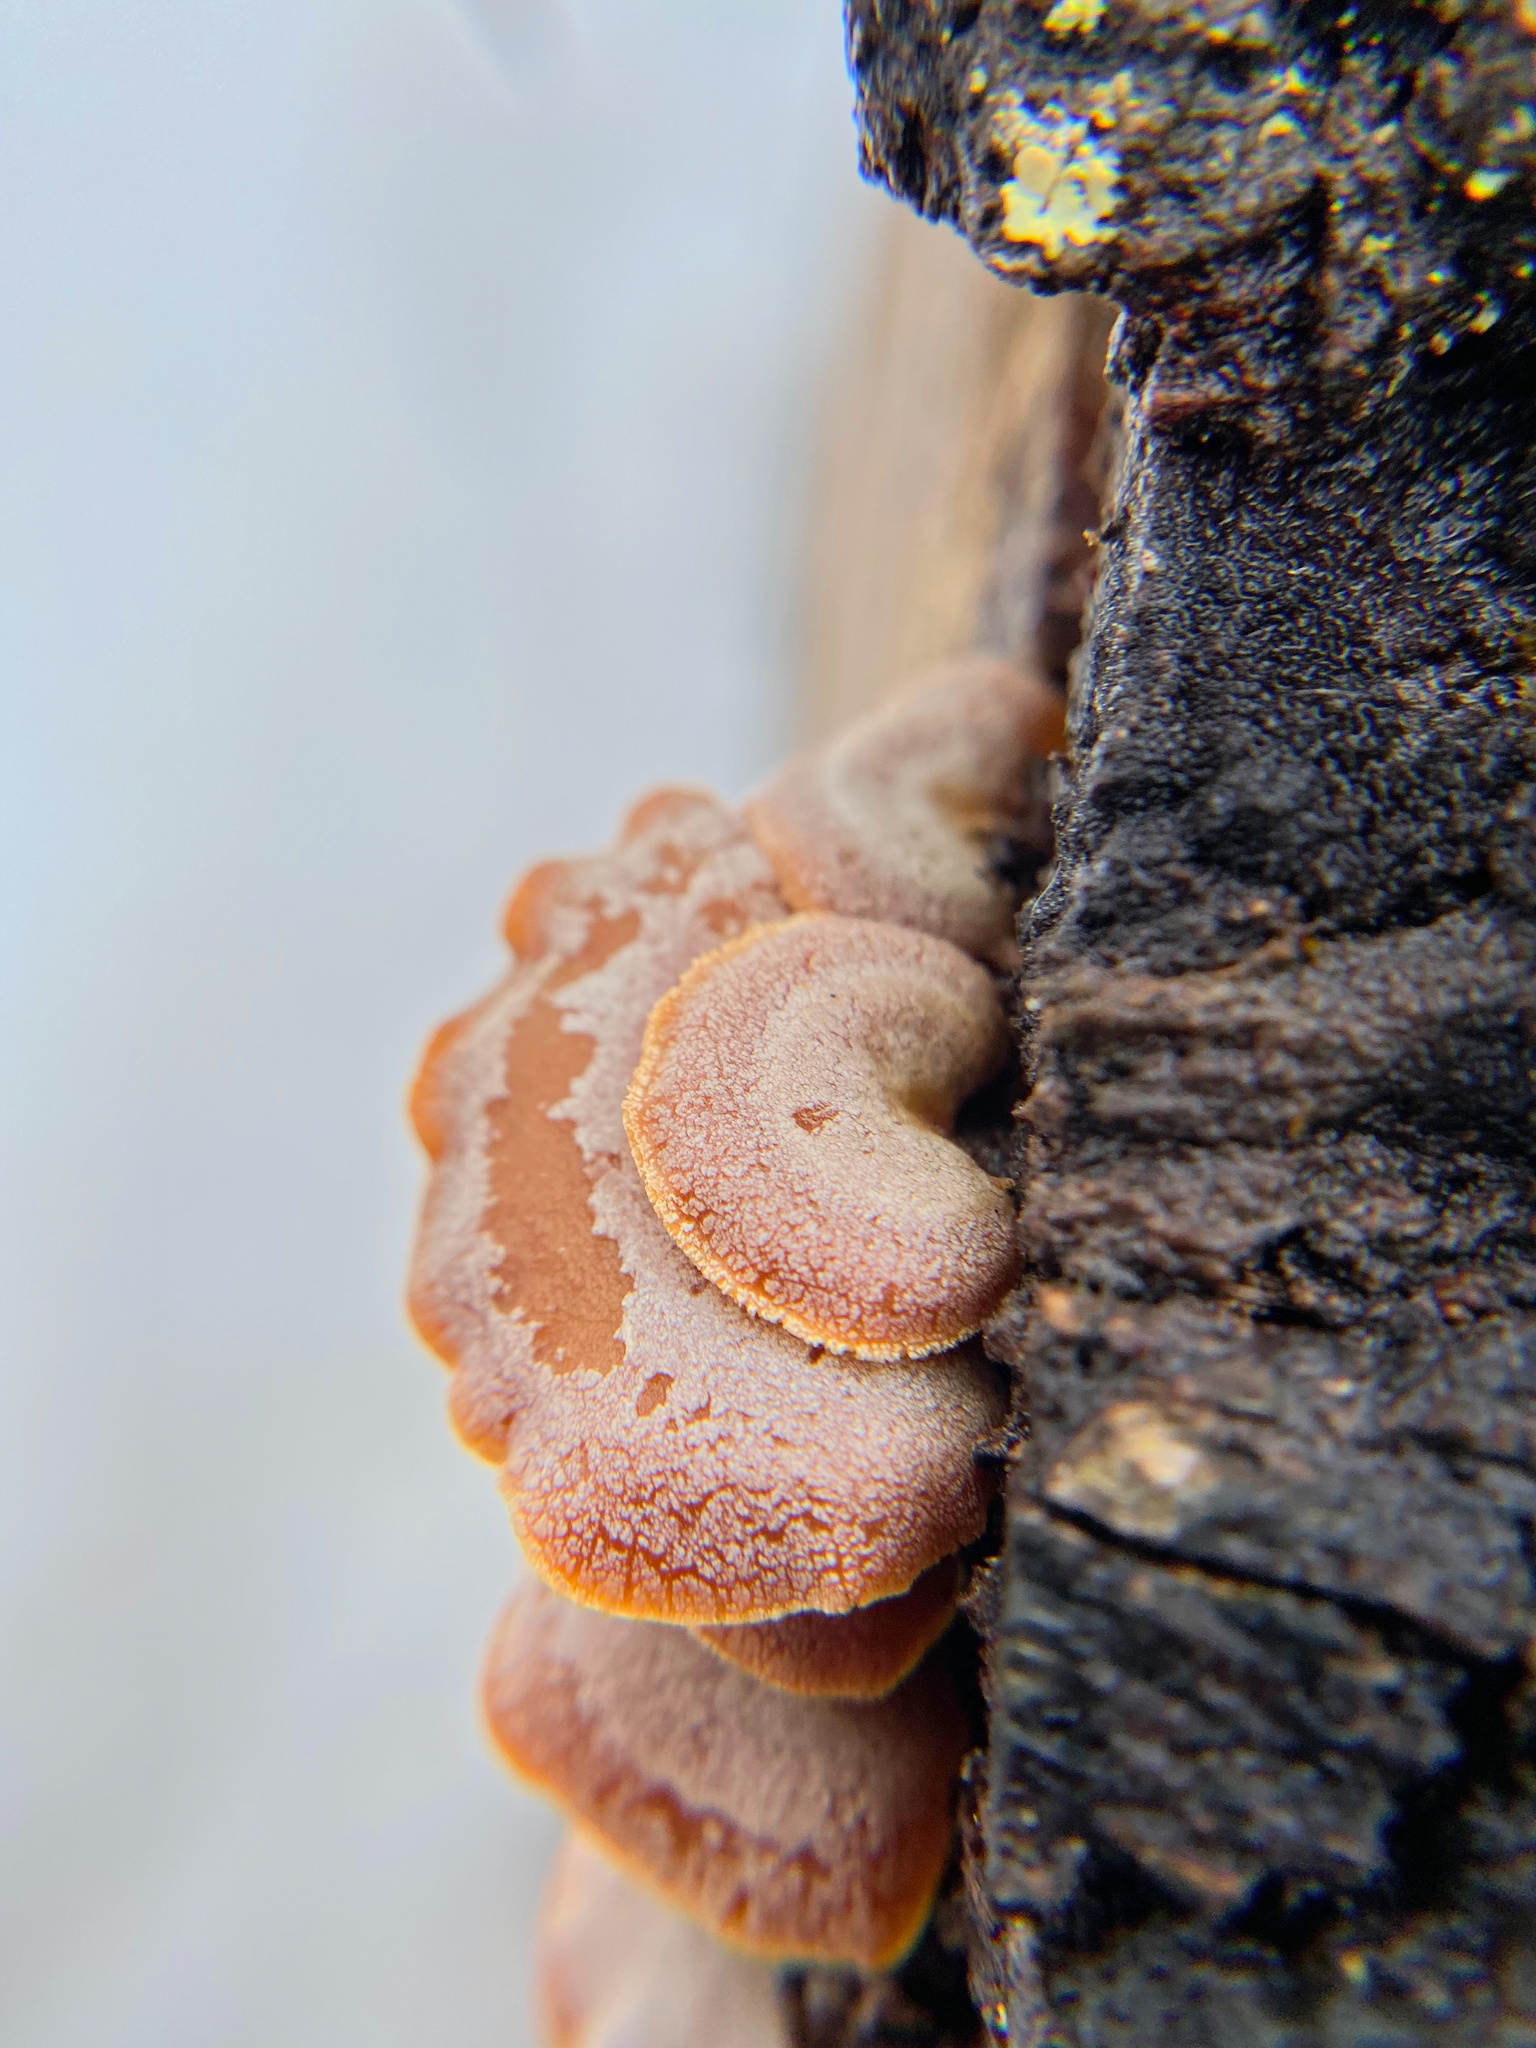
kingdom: Fungi
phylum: Basidiomycota
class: Agaricomycetes
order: Agaricales
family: Mycenaceae
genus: Panellus
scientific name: Panellus stipticus
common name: Bitter oysterling
